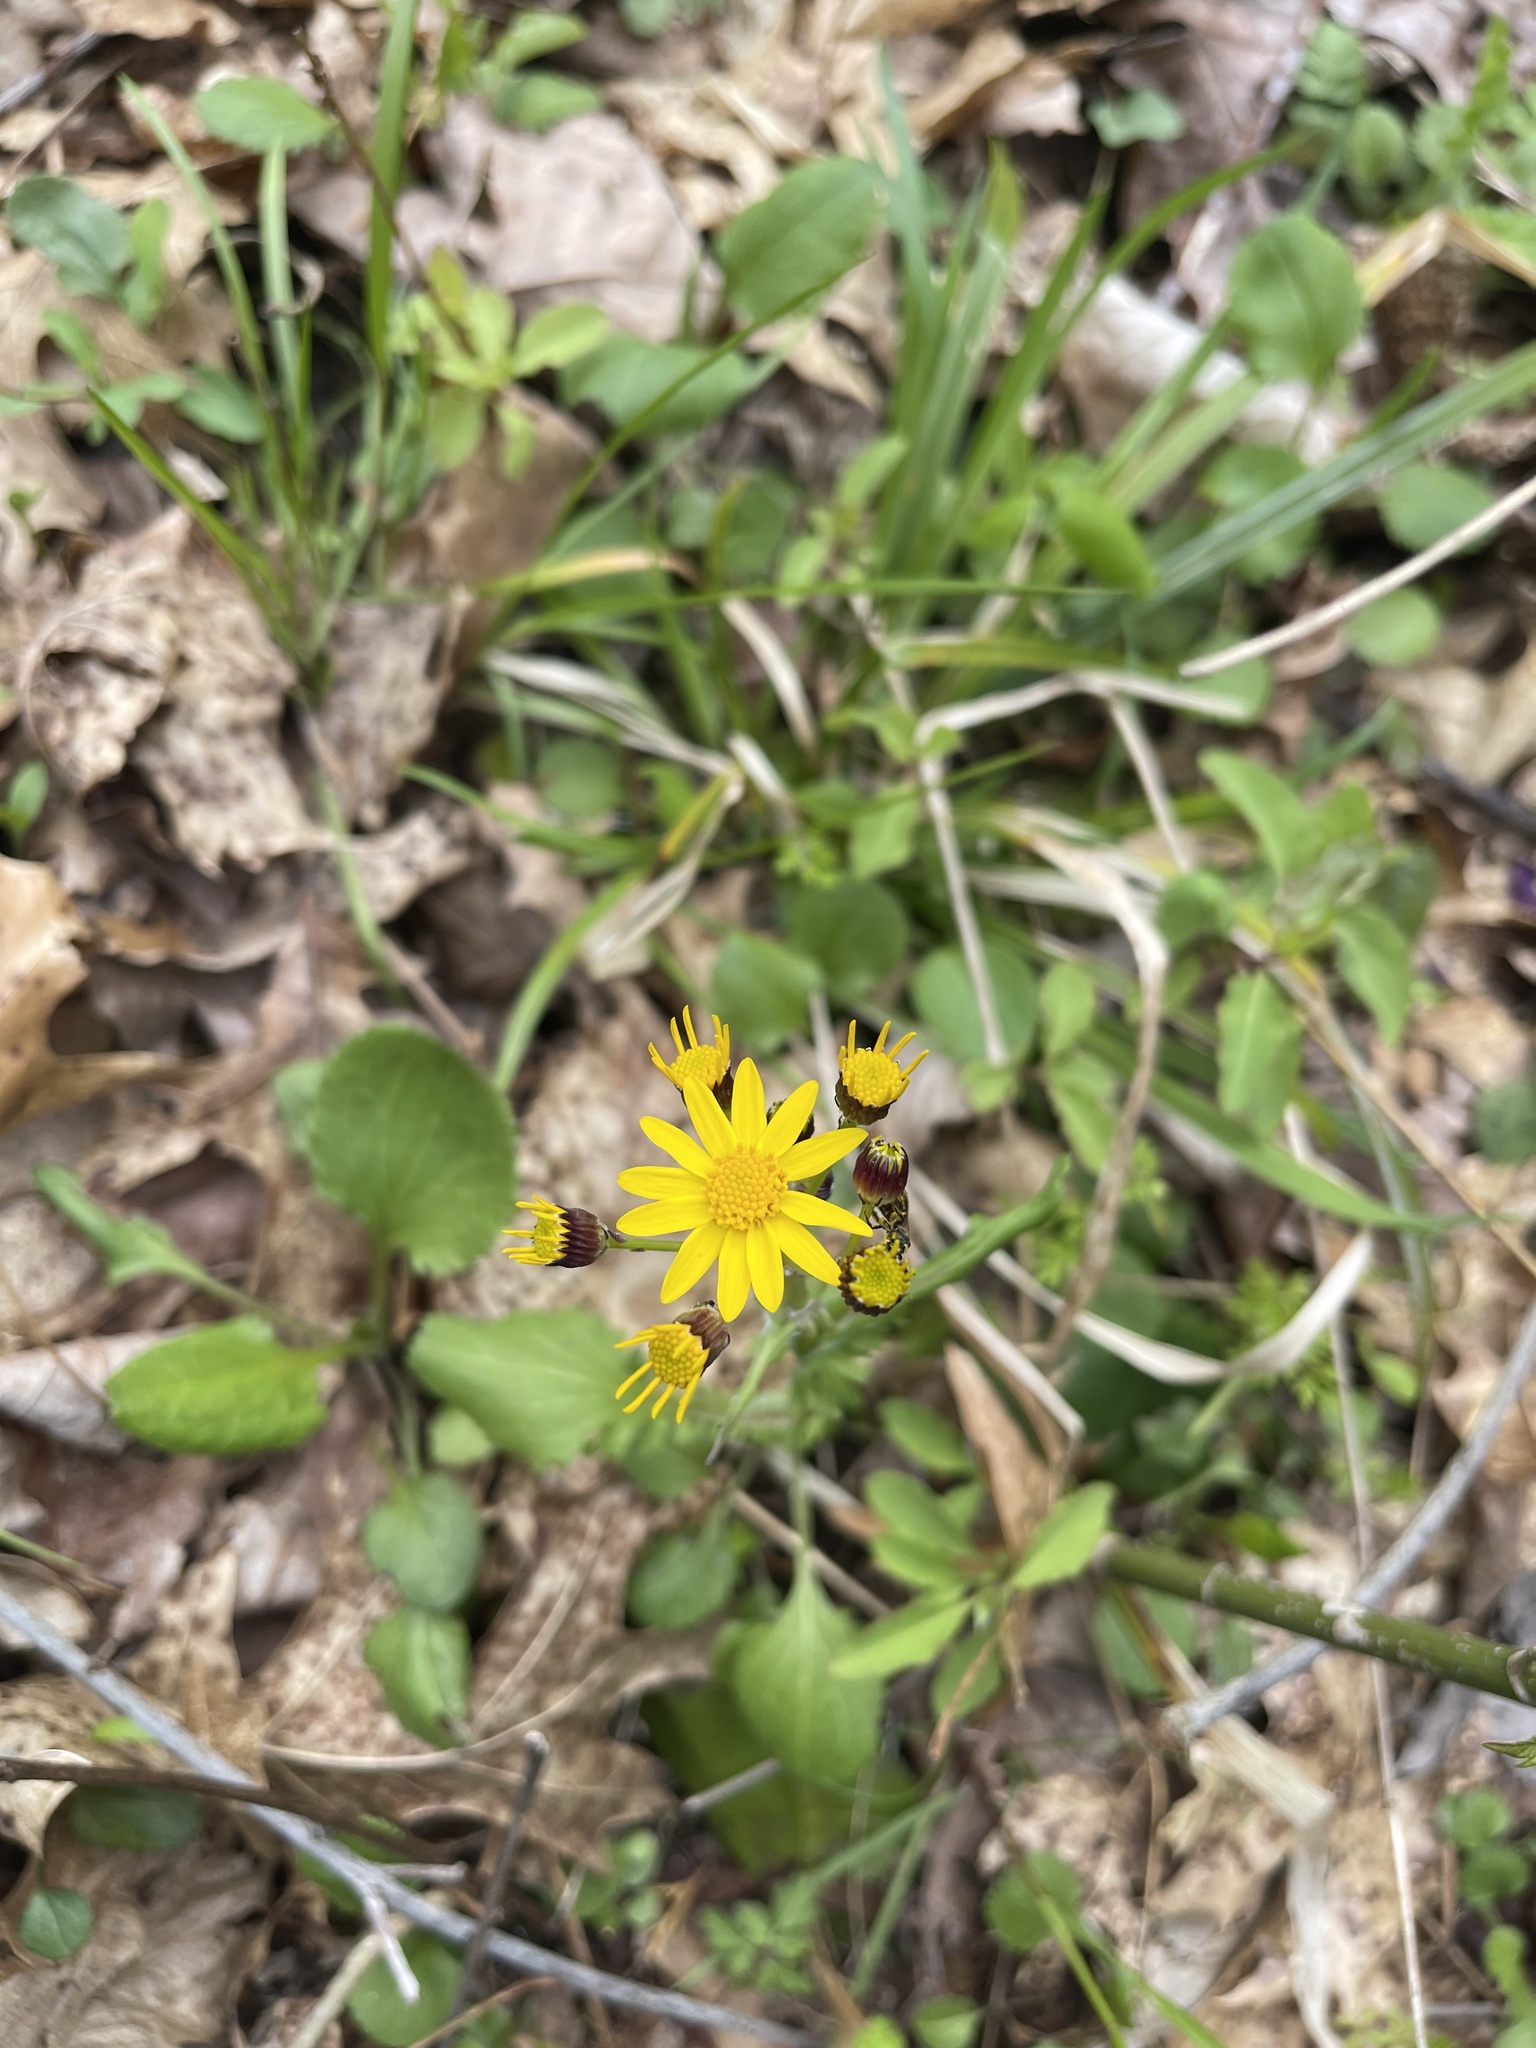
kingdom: Plantae
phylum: Tracheophyta
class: Magnoliopsida
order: Asterales
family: Asteraceae
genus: Packera
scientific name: Packera obovata
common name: Round-leaf ragwort
